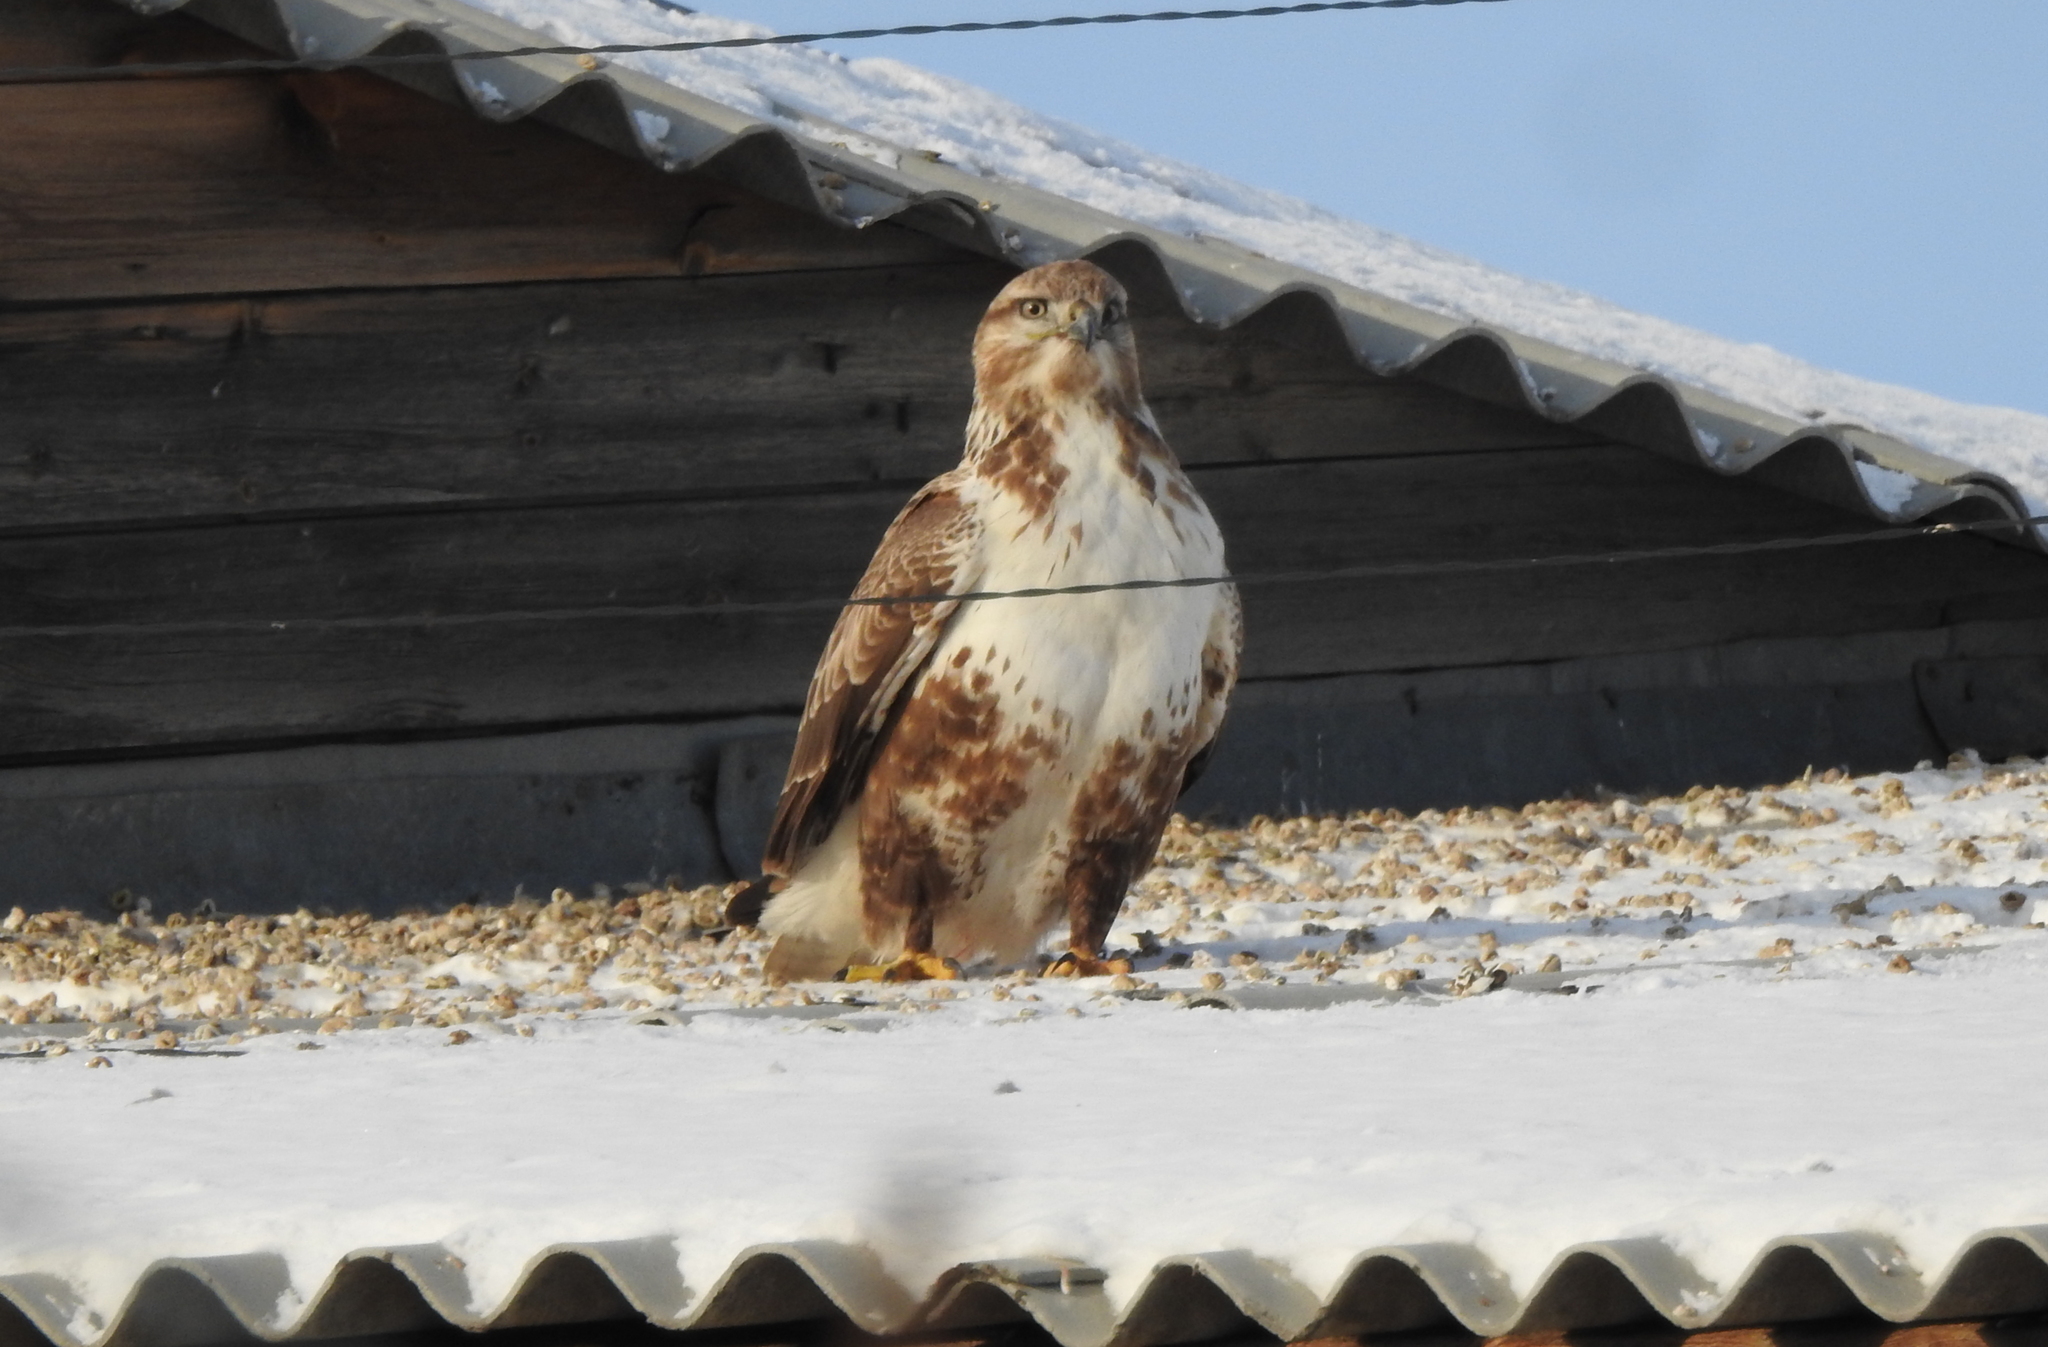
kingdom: Animalia
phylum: Chordata
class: Aves
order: Accipitriformes
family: Accipitridae
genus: Buteo
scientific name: Buteo hemilasius
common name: Upland buzzard
